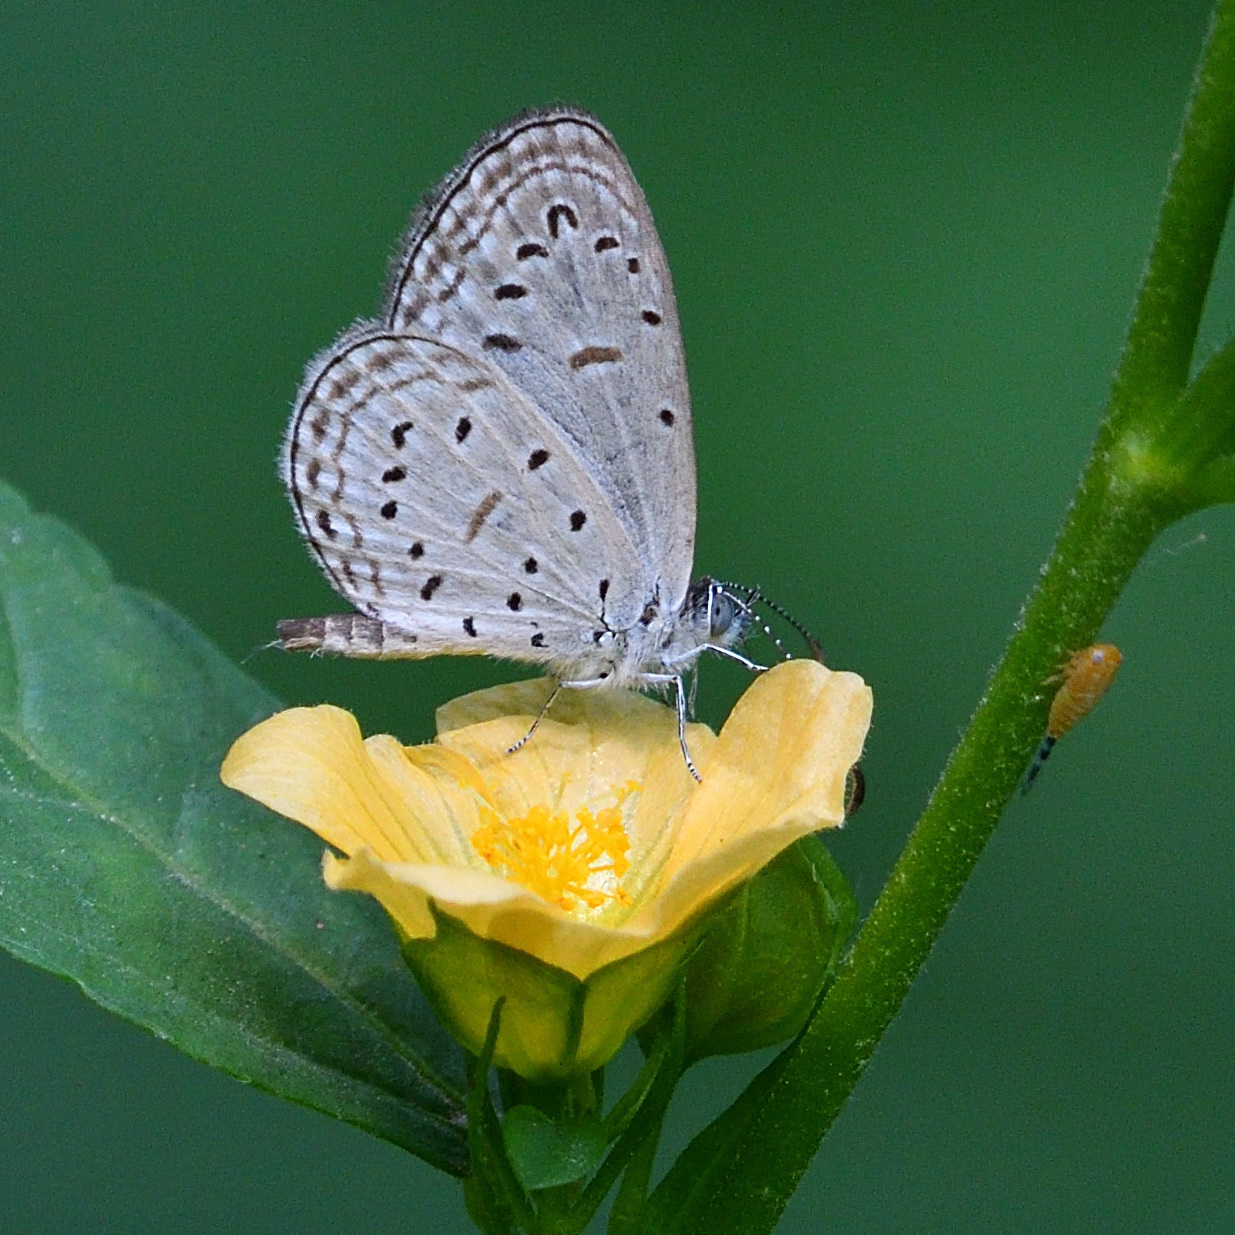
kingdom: Animalia
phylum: Arthropoda
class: Insecta
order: Lepidoptera
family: Lycaenidae
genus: Zizula
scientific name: Zizula hylax
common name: Gaika blue
